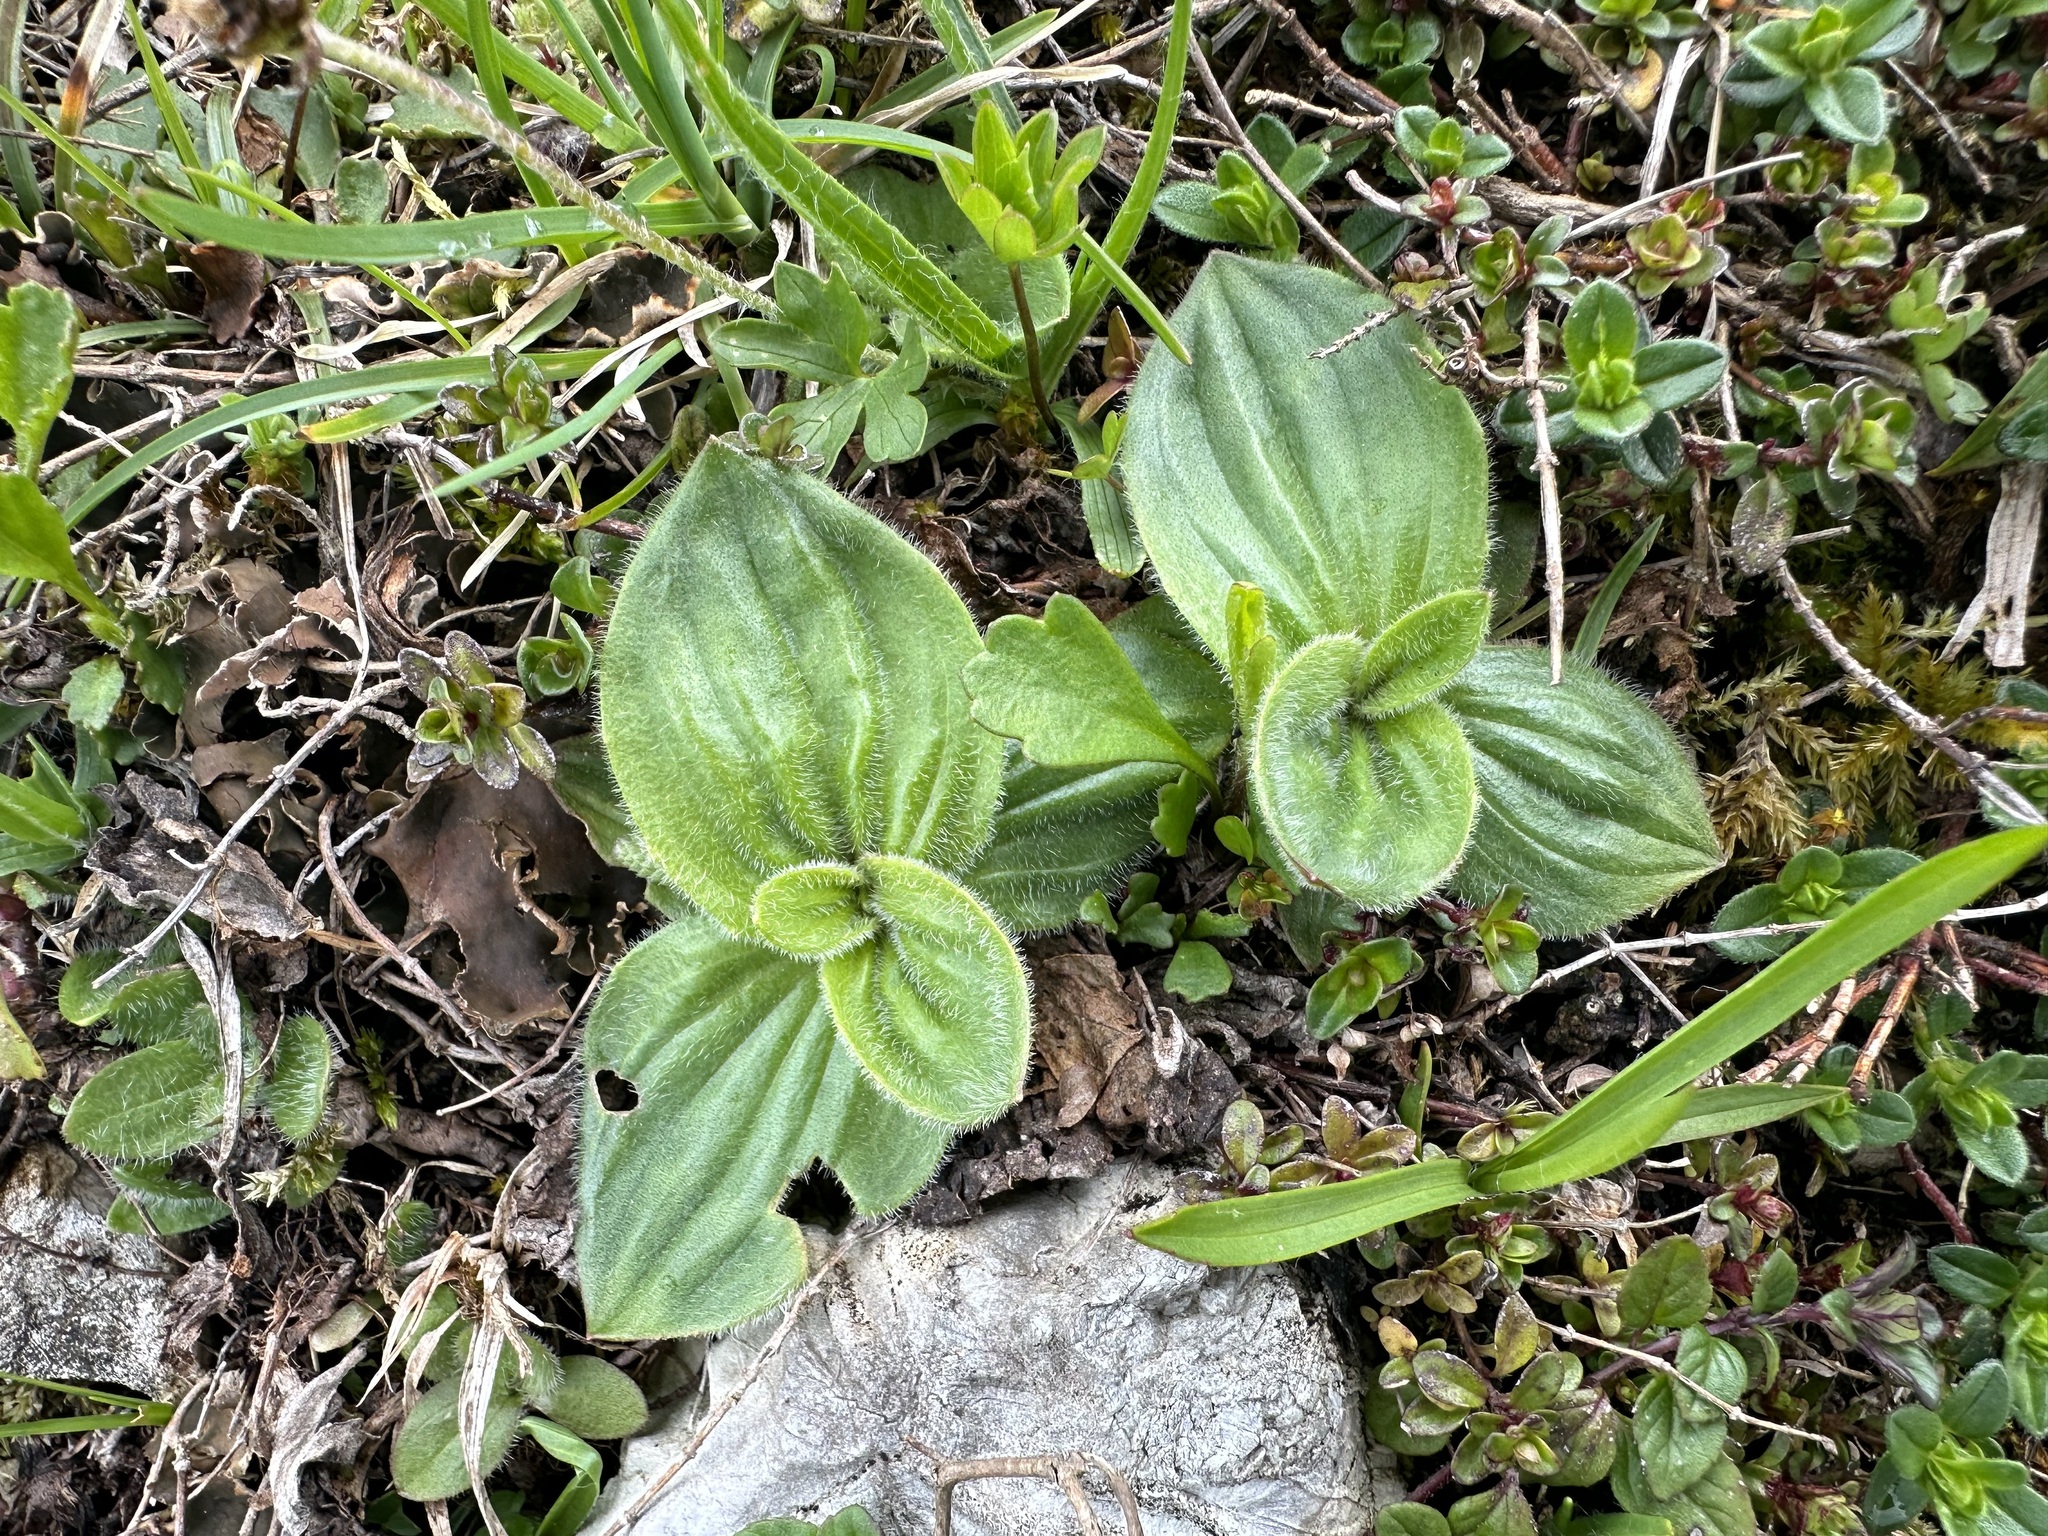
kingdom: Plantae
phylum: Tracheophyta
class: Magnoliopsida
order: Lamiales
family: Plantaginaceae
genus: Plantago
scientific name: Plantago media
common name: Hoary plantain
